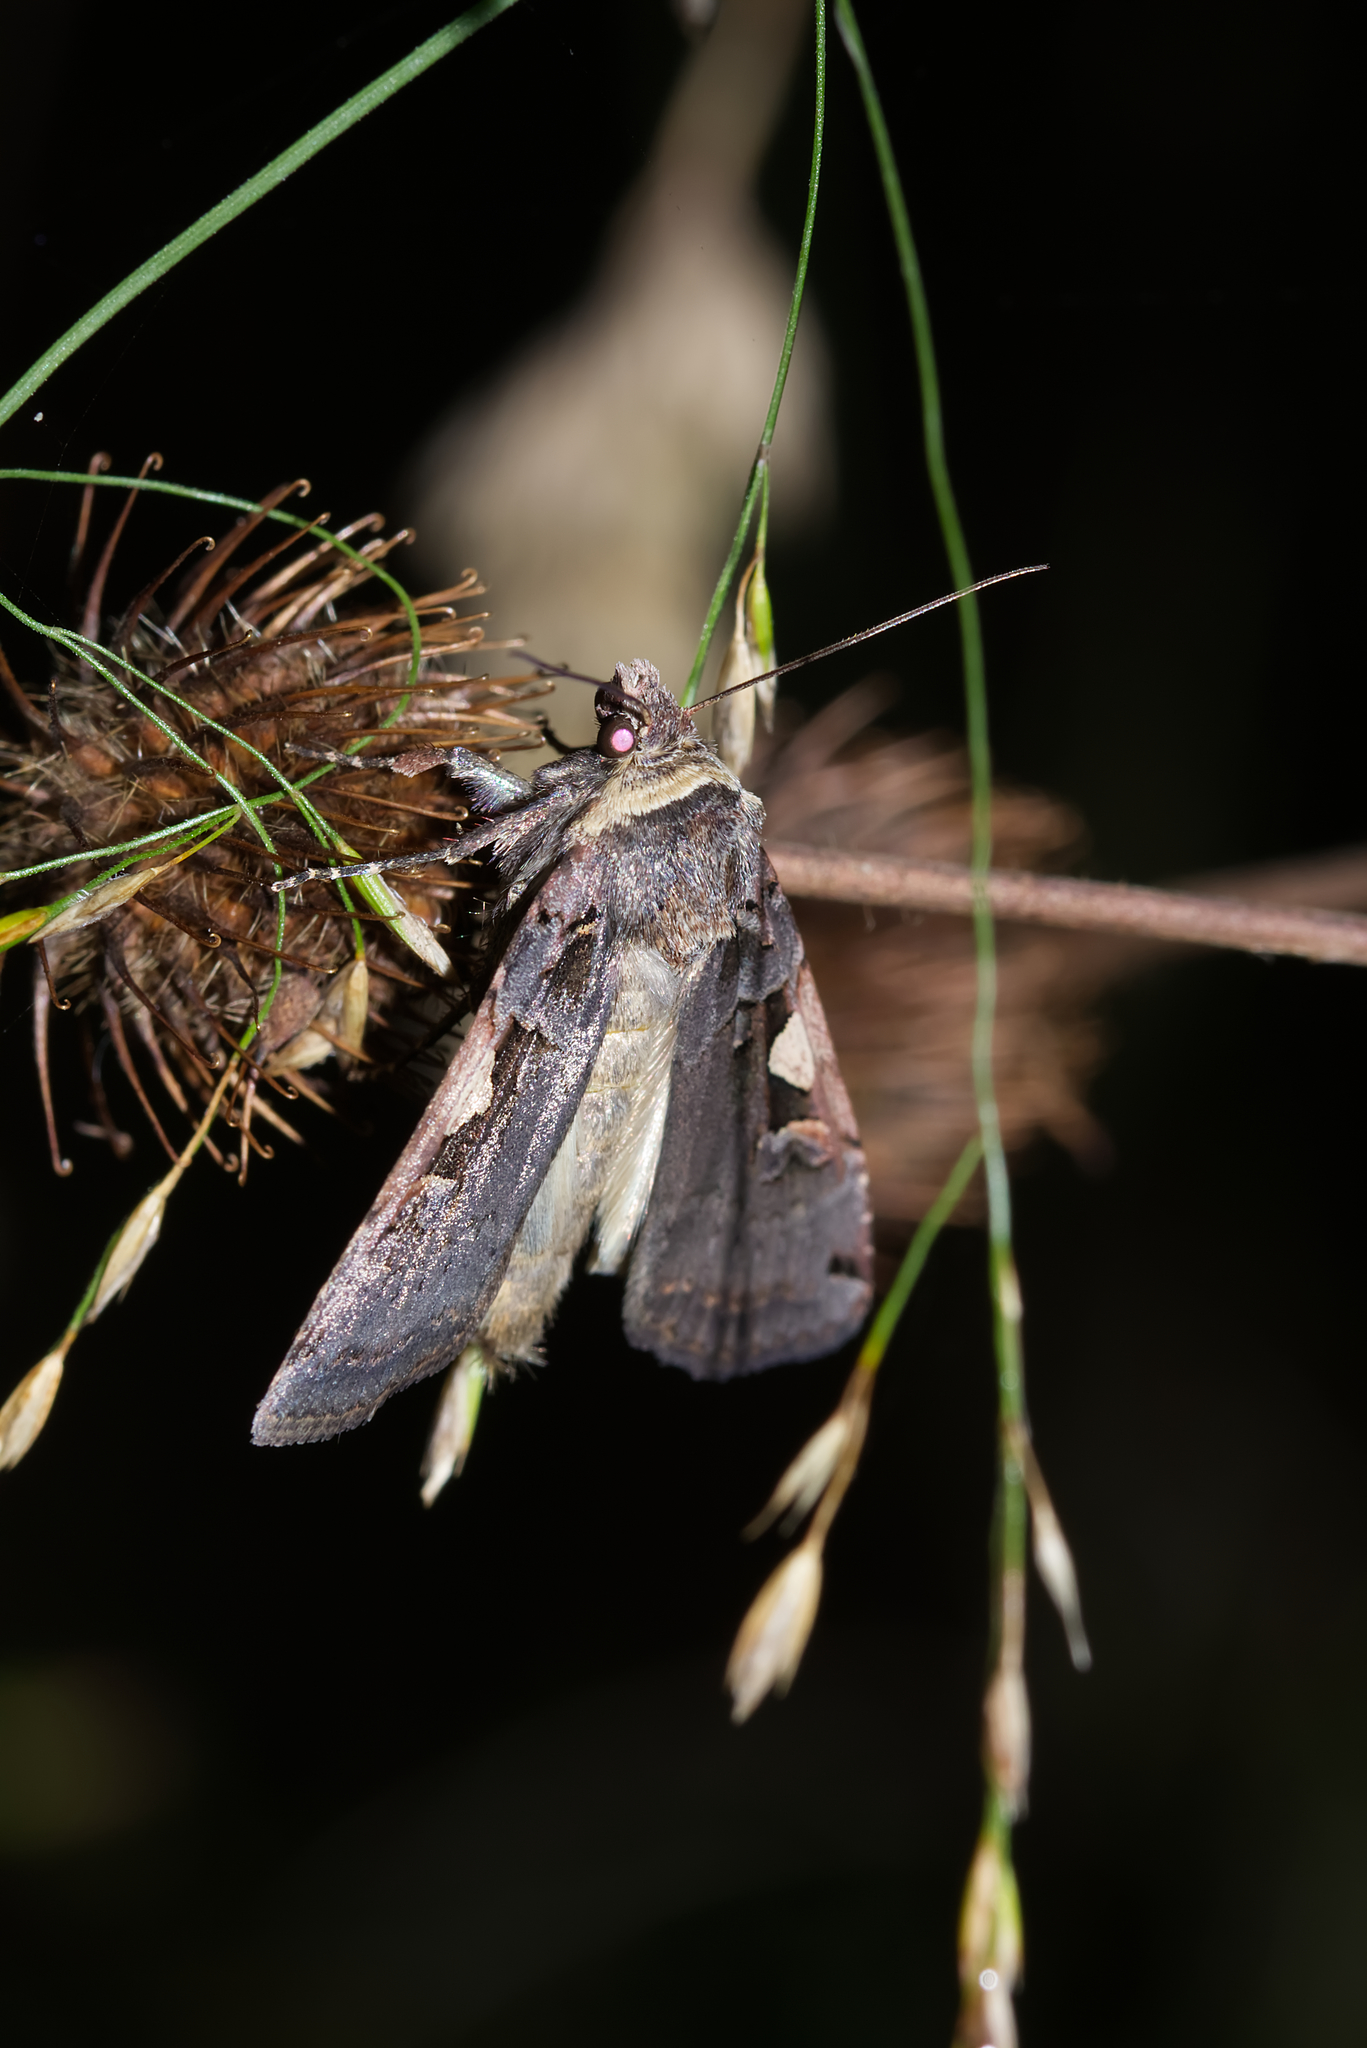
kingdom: Animalia
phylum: Arthropoda
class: Insecta
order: Lepidoptera
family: Noctuidae
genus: Xestia
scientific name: Xestia c-nigrum
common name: Setaceous hebrew character
